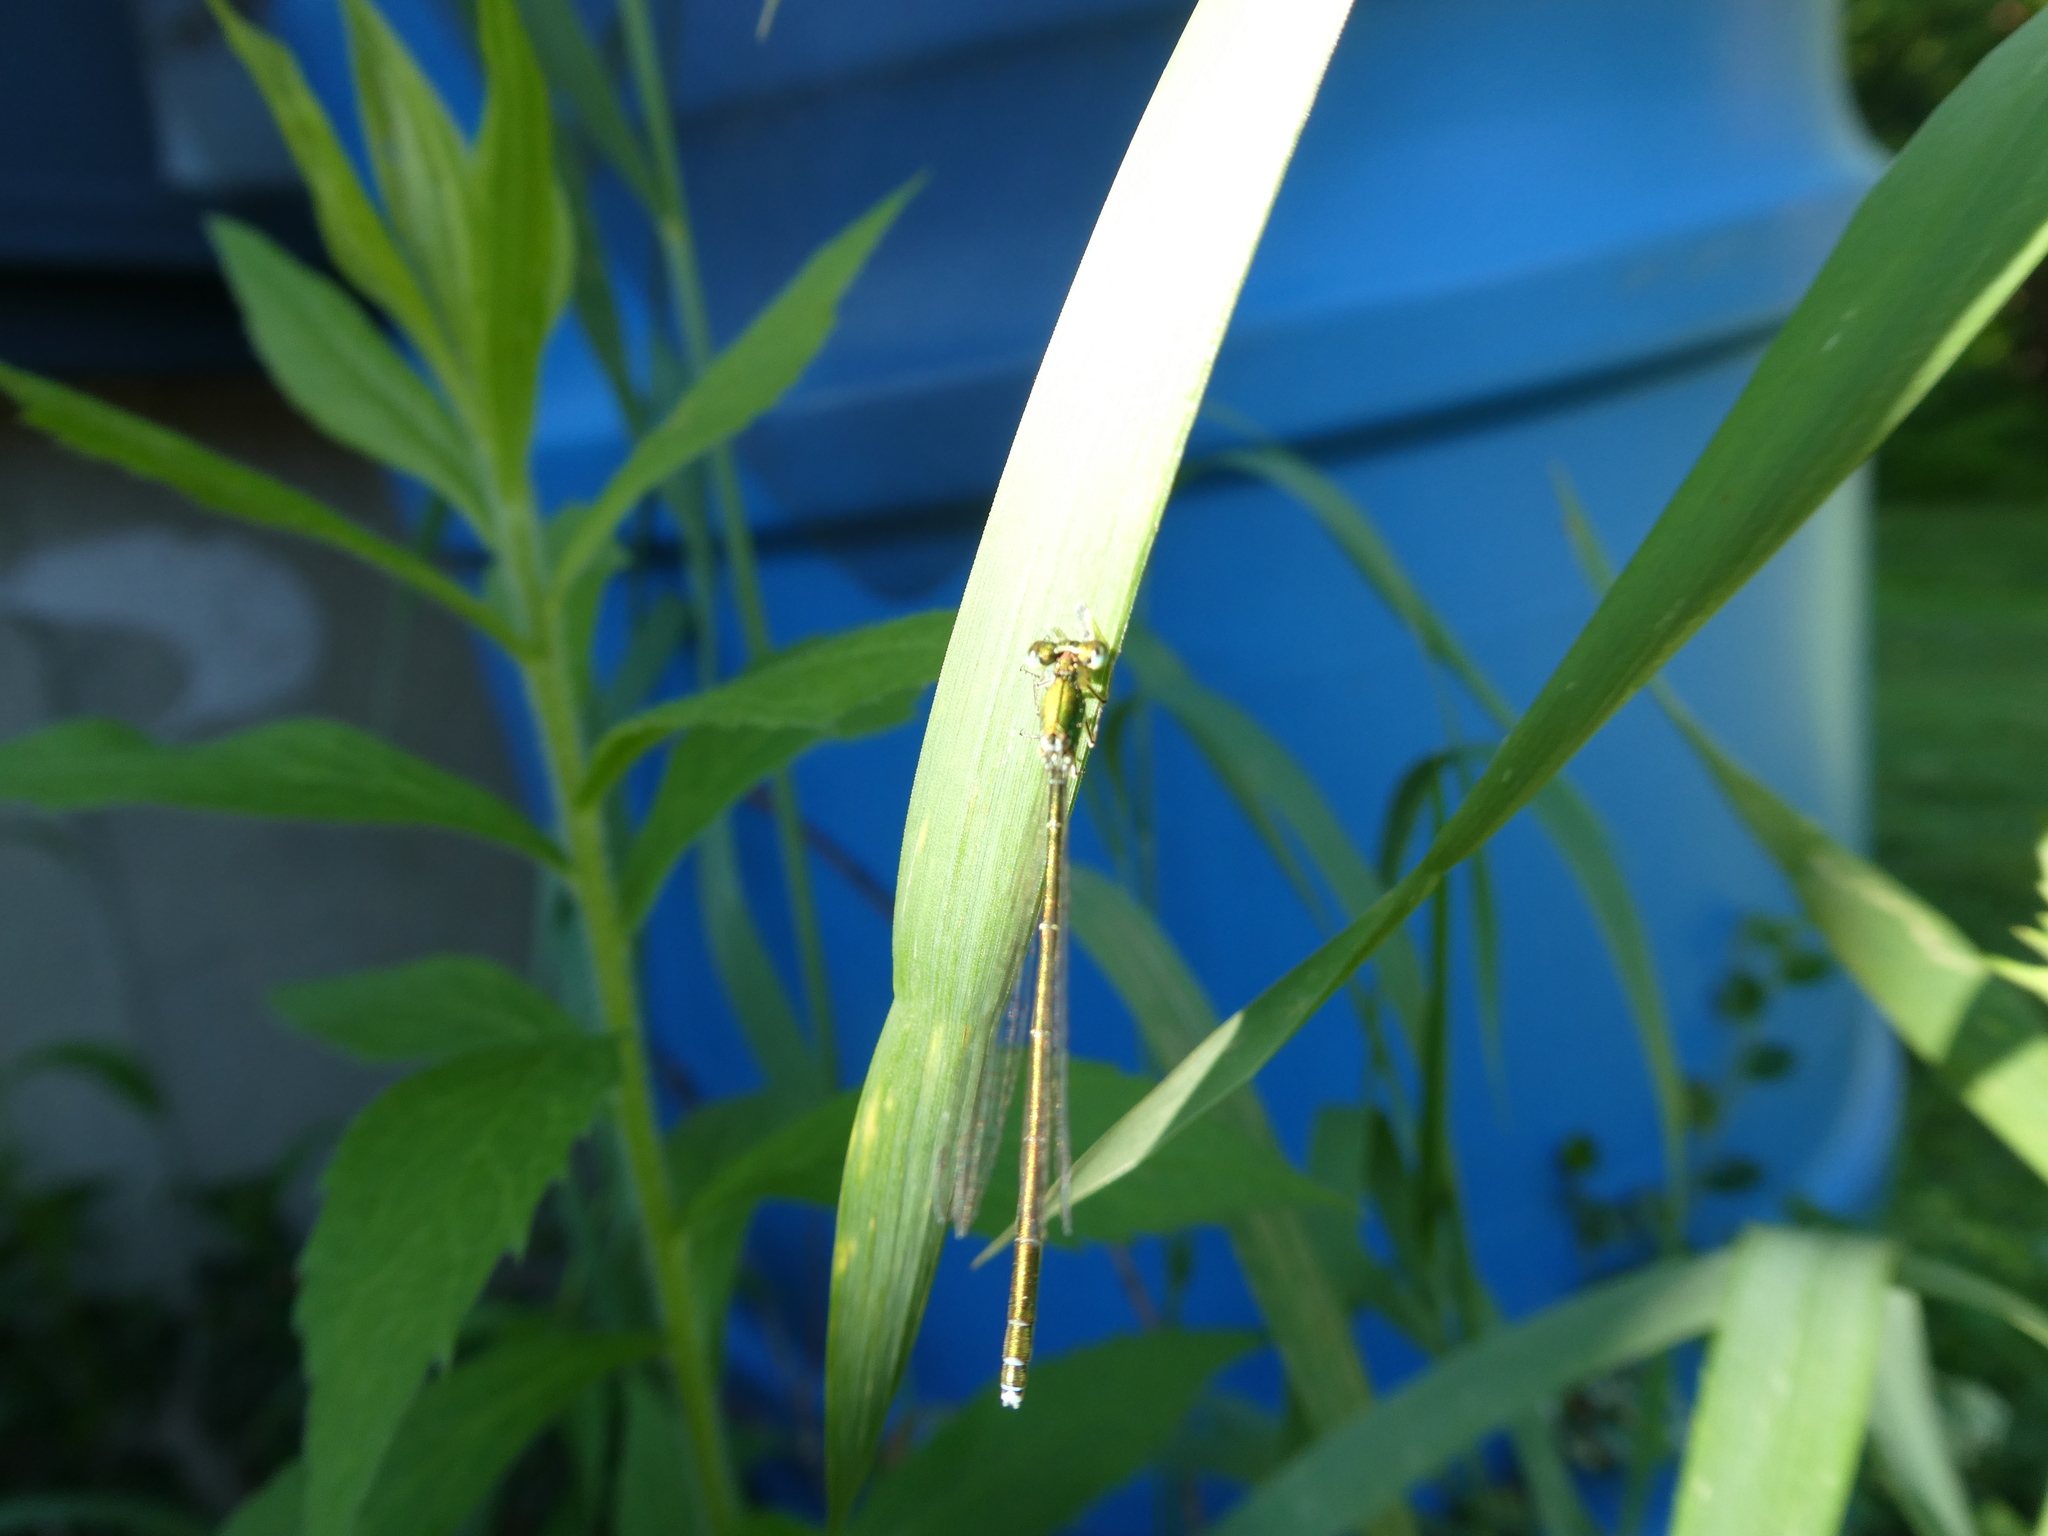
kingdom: Animalia
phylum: Arthropoda
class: Insecta
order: Odonata
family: Coenagrionidae
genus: Nehalennia
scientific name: Nehalennia irene
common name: Sedge sprite
